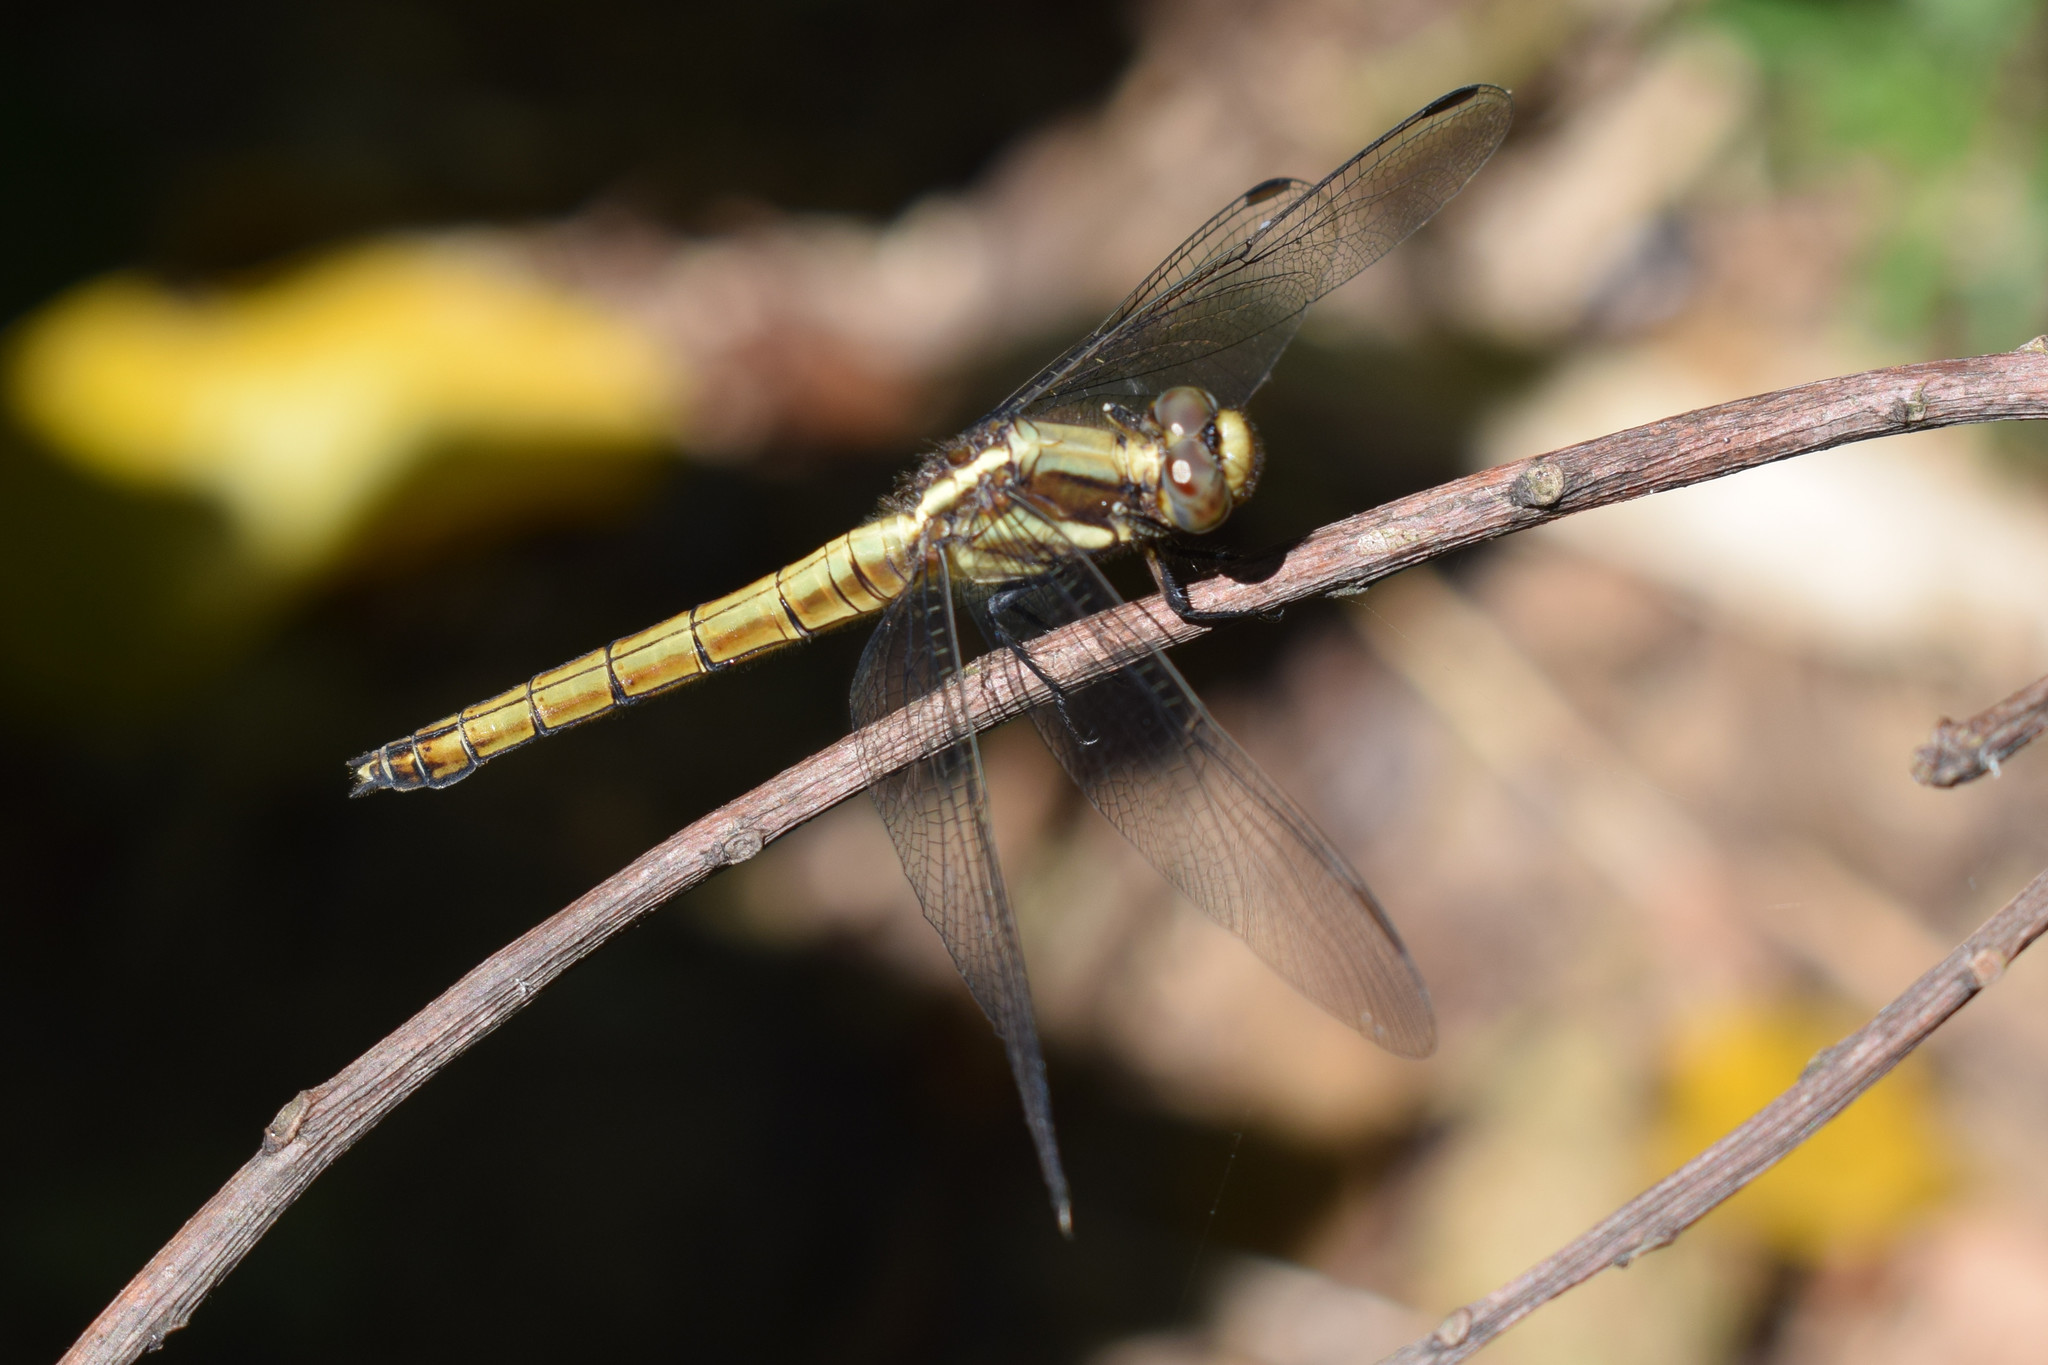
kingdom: Animalia
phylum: Arthropoda
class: Insecta
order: Odonata
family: Libellulidae
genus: Orthetrum
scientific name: Orthetrum triangulare
